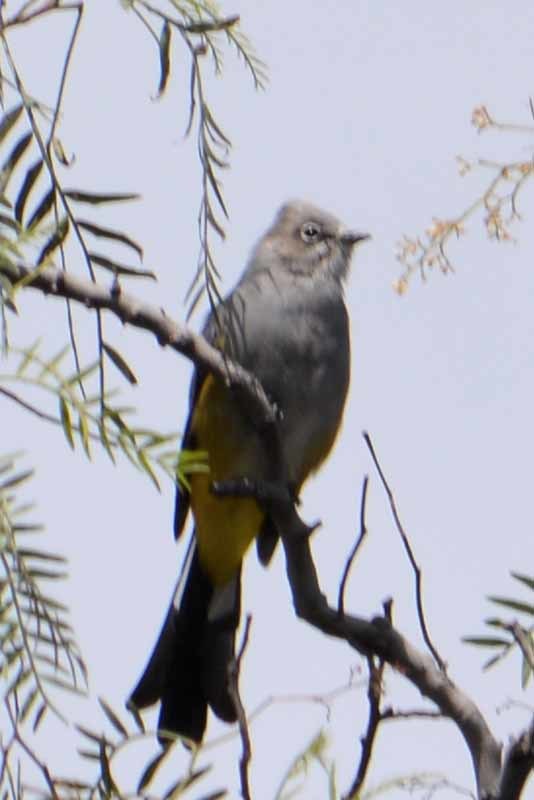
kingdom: Animalia
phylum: Chordata
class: Aves
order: Passeriformes
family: Ptilogonatidae
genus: Ptilogonys
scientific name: Ptilogonys cinereus
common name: Gray silky-flycatcher
